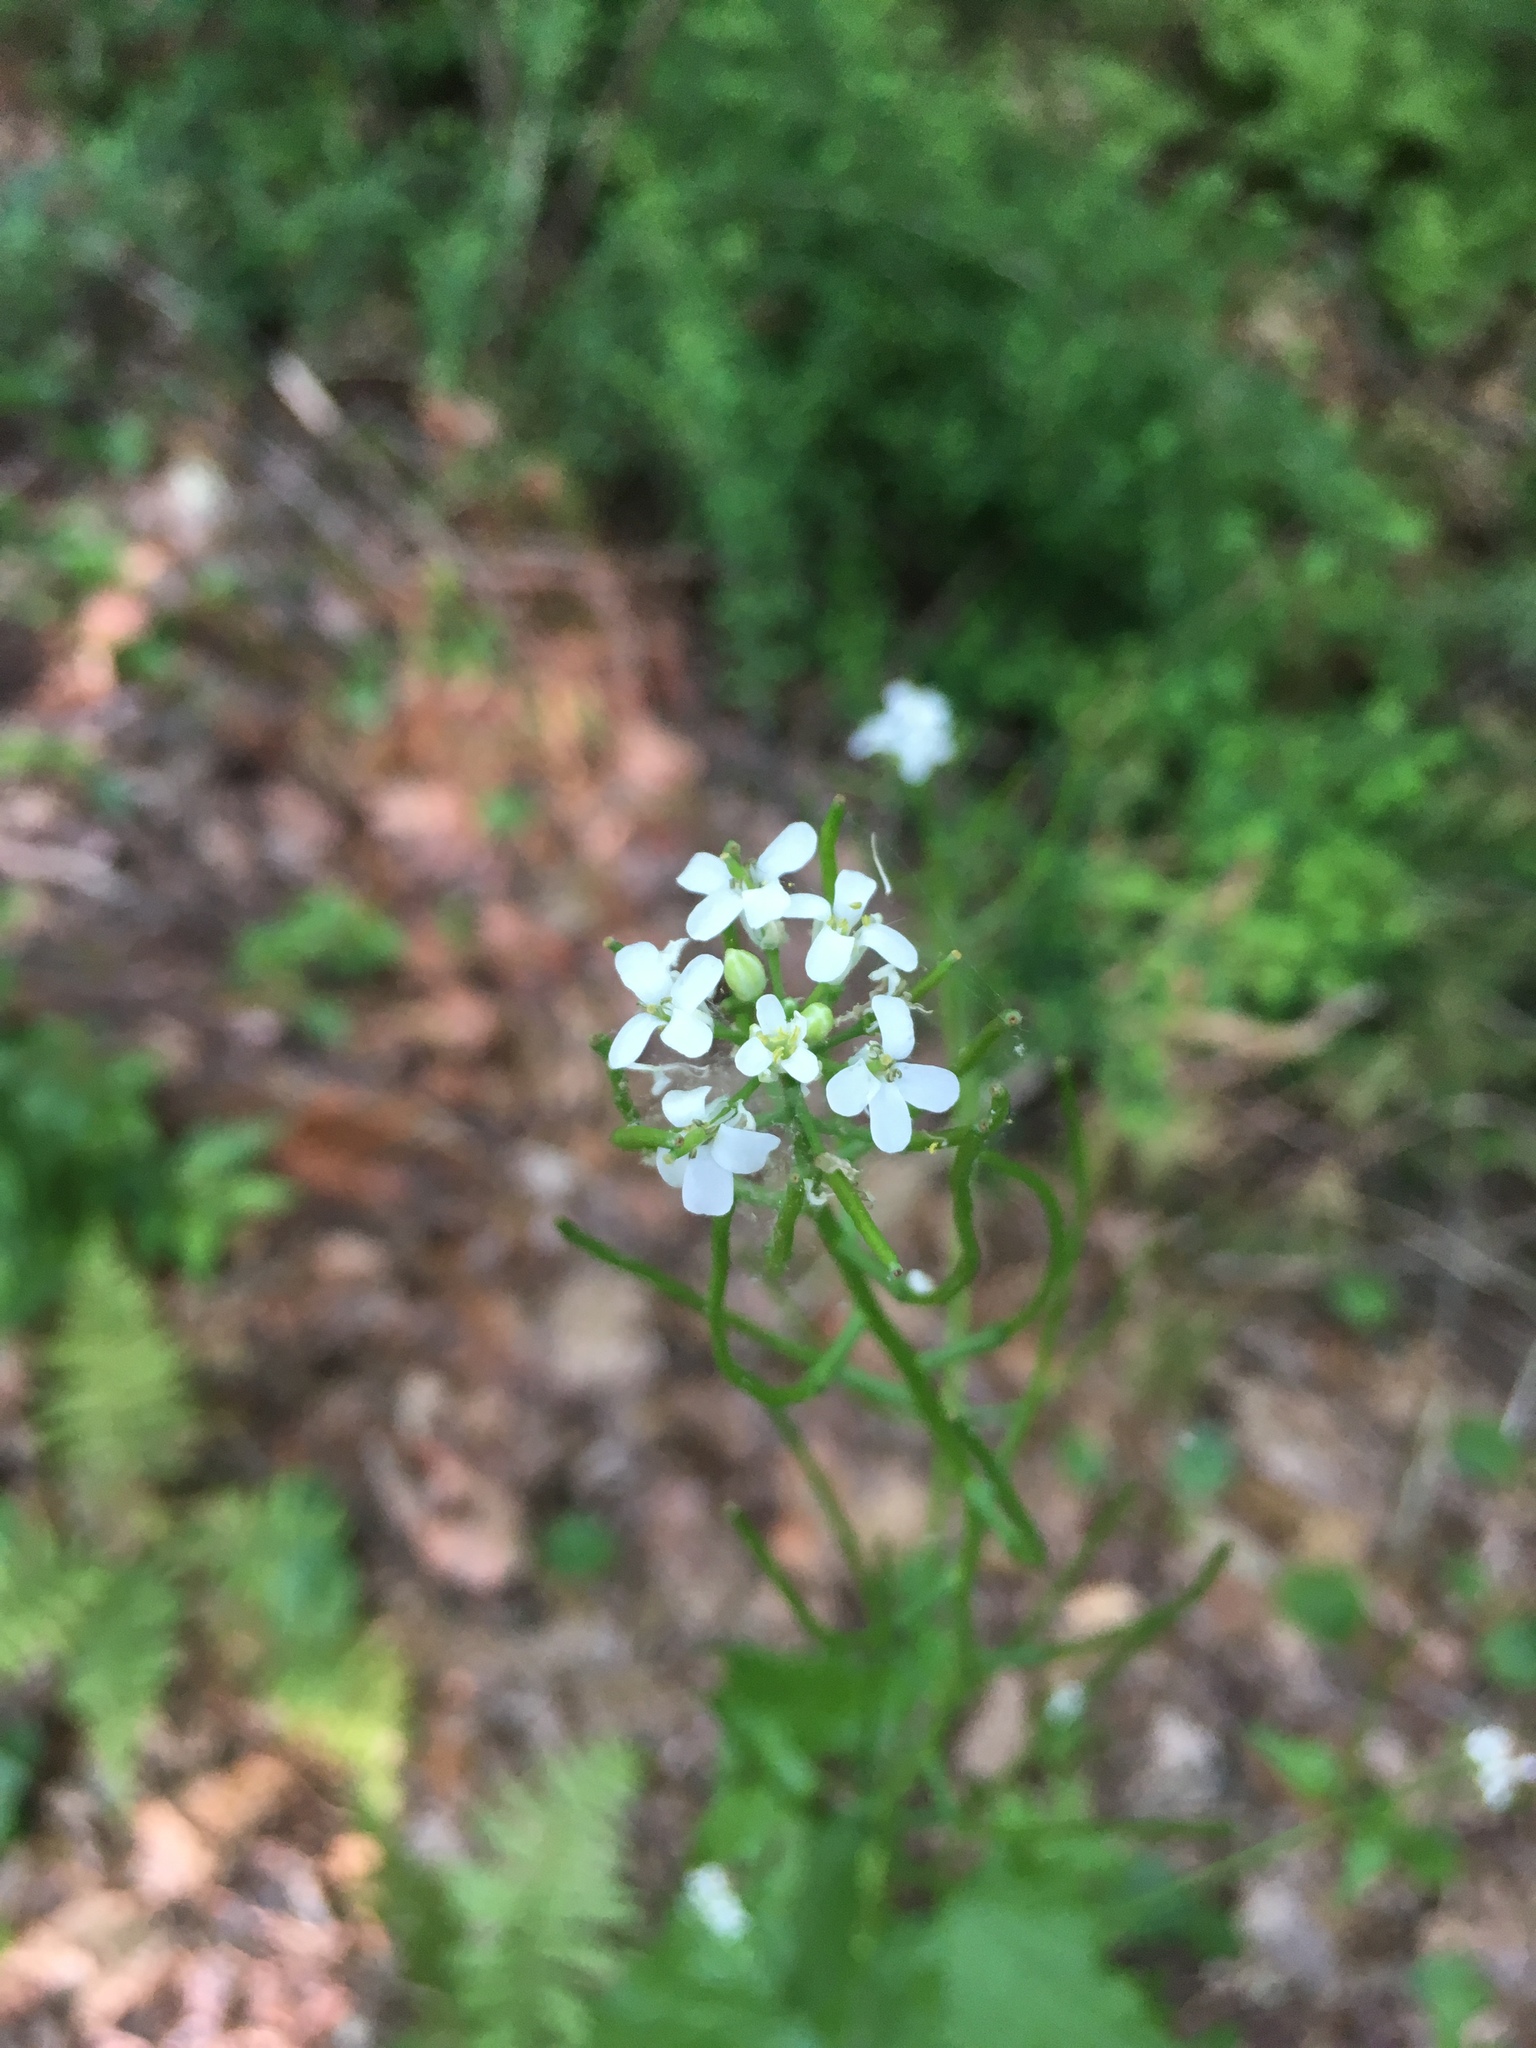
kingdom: Plantae
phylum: Tracheophyta
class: Magnoliopsida
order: Brassicales
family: Brassicaceae
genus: Alliaria
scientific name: Alliaria petiolata
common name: Garlic mustard
